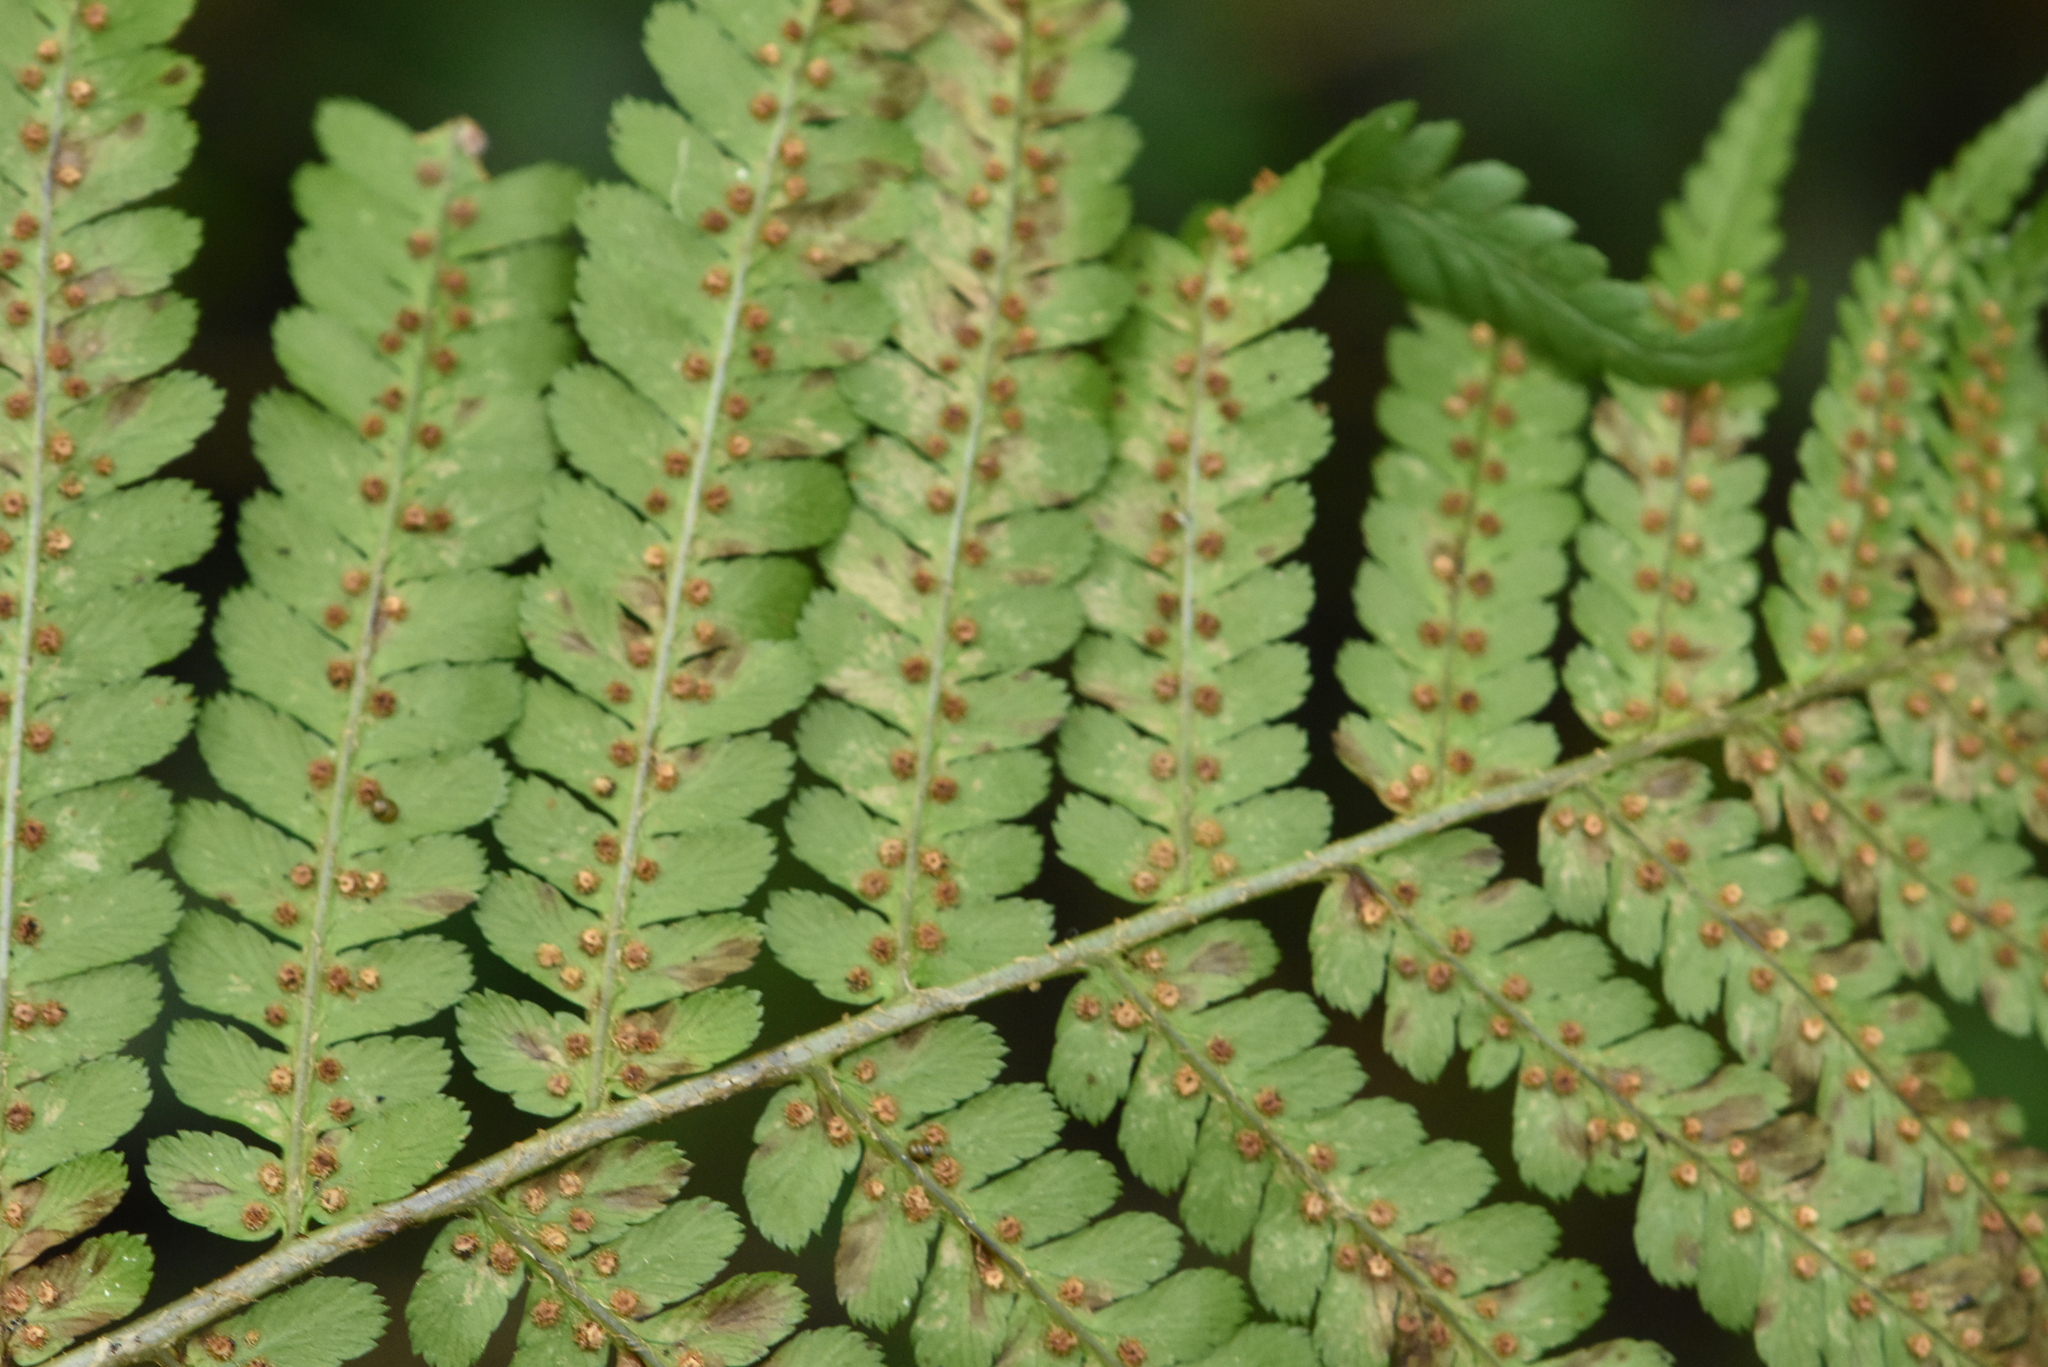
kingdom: Plantae
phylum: Tracheophyta
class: Polypodiopsida
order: Polypodiales
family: Dryopteridaceae
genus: Dryopteris
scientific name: Dryopteris filix-mas
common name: Male fern
